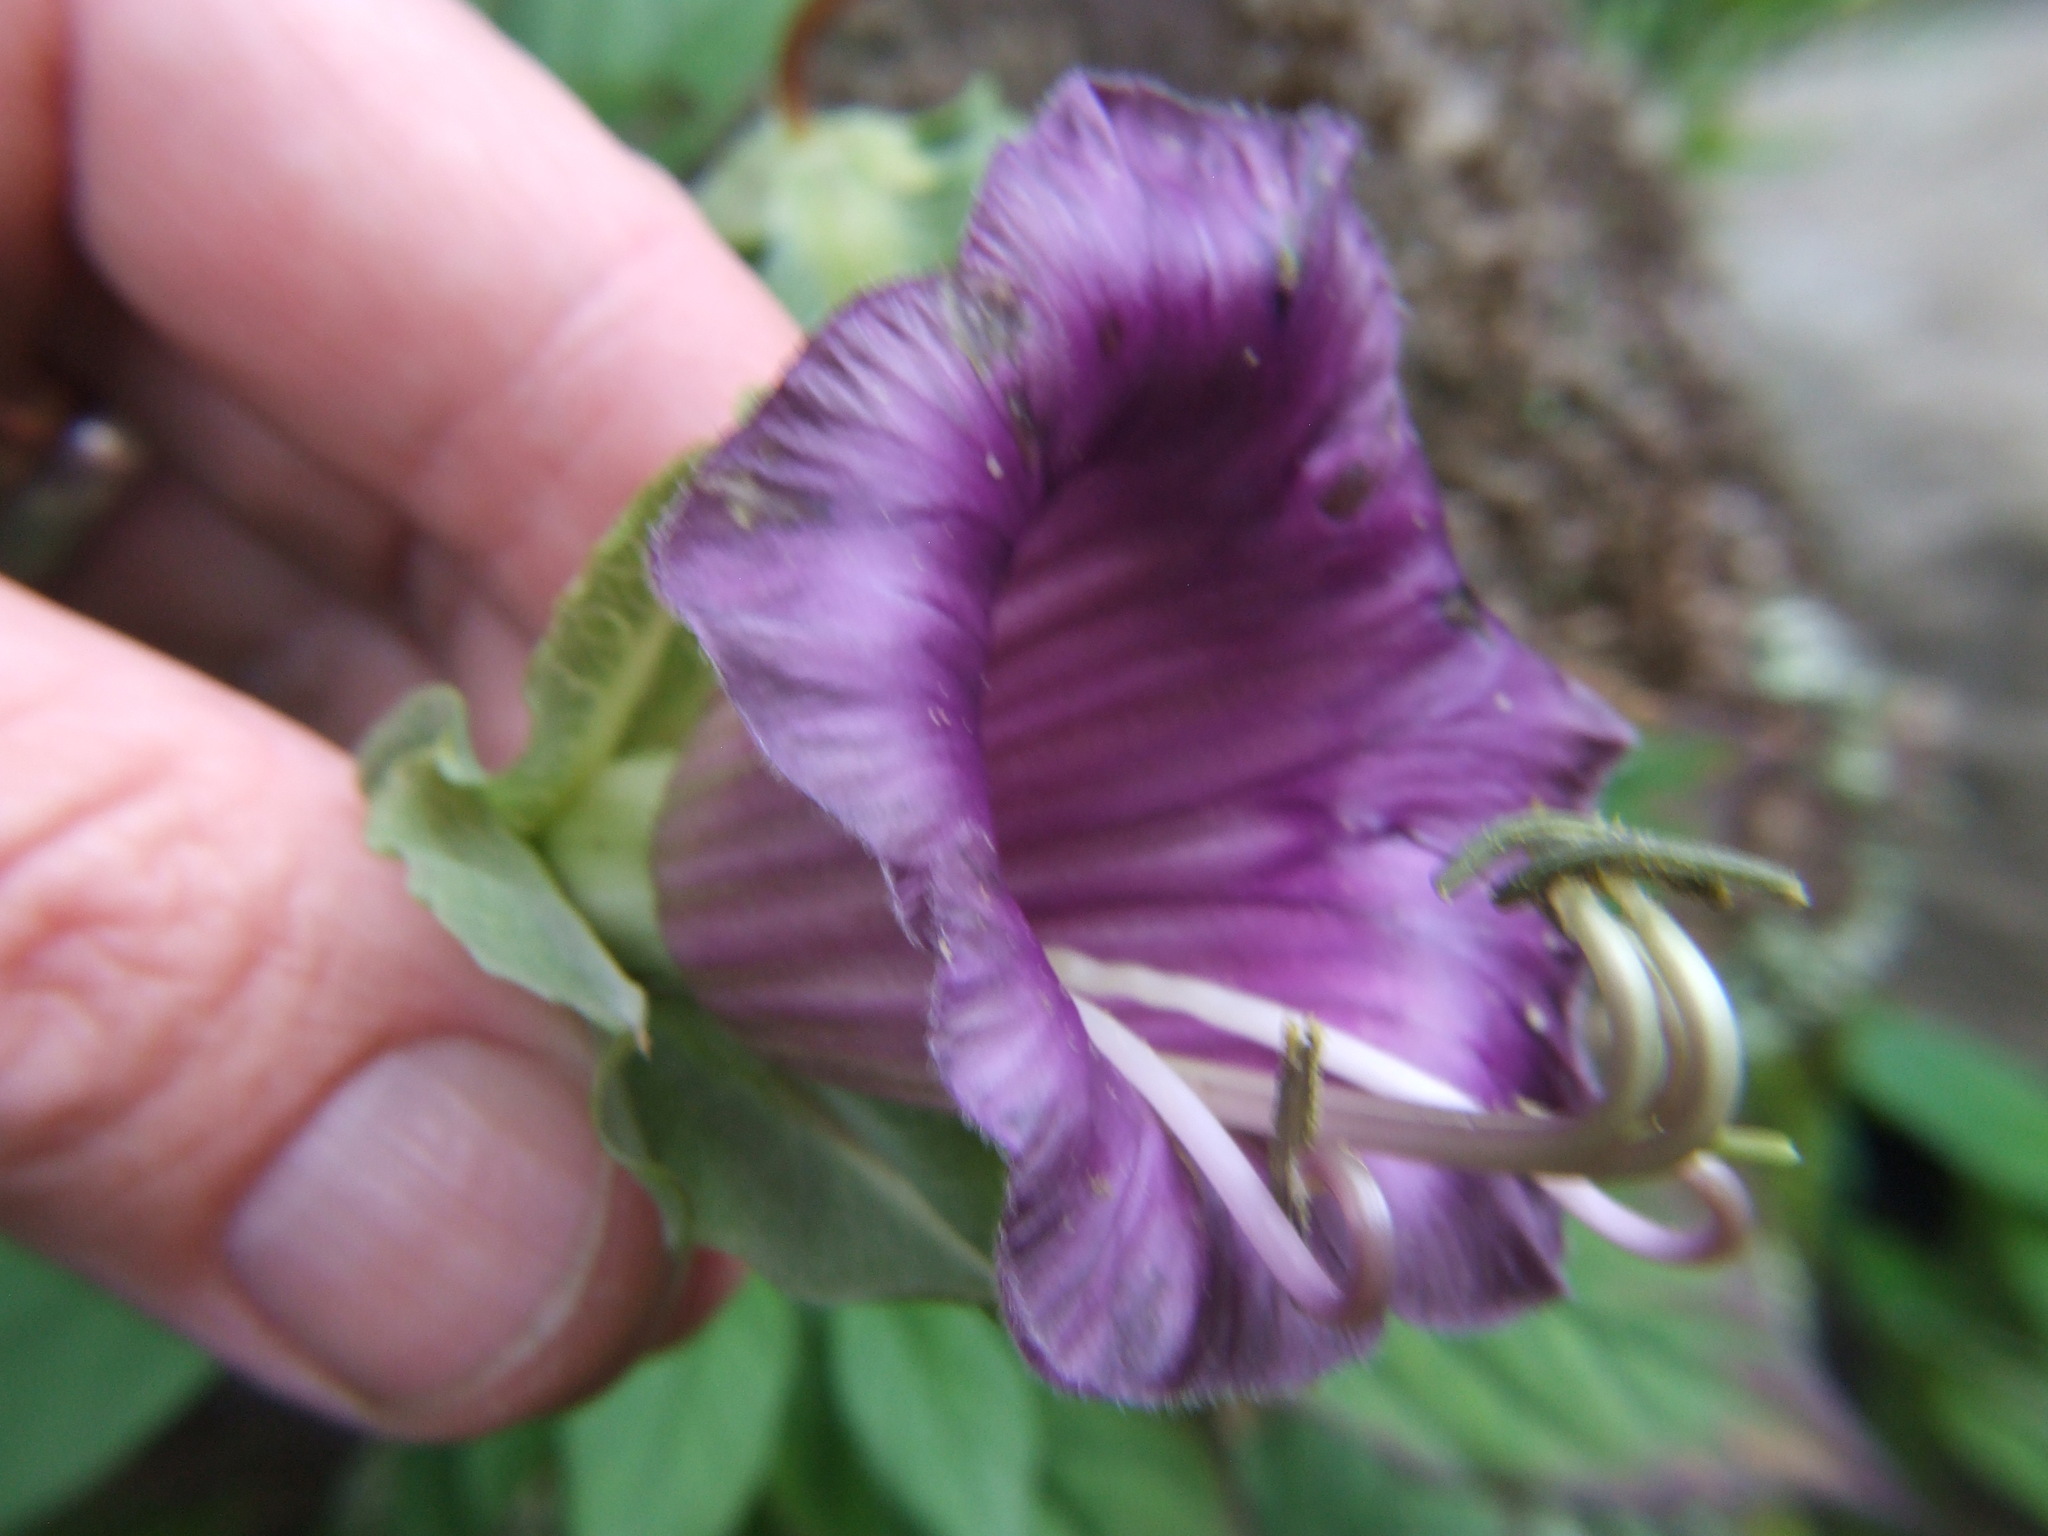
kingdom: Plantae
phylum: Tracheophyta
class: Magnoliopsida
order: Ericales
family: Polemoniaceae
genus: Cobaea
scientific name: Cobaea scandens
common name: Cup-and-saucer-vine
